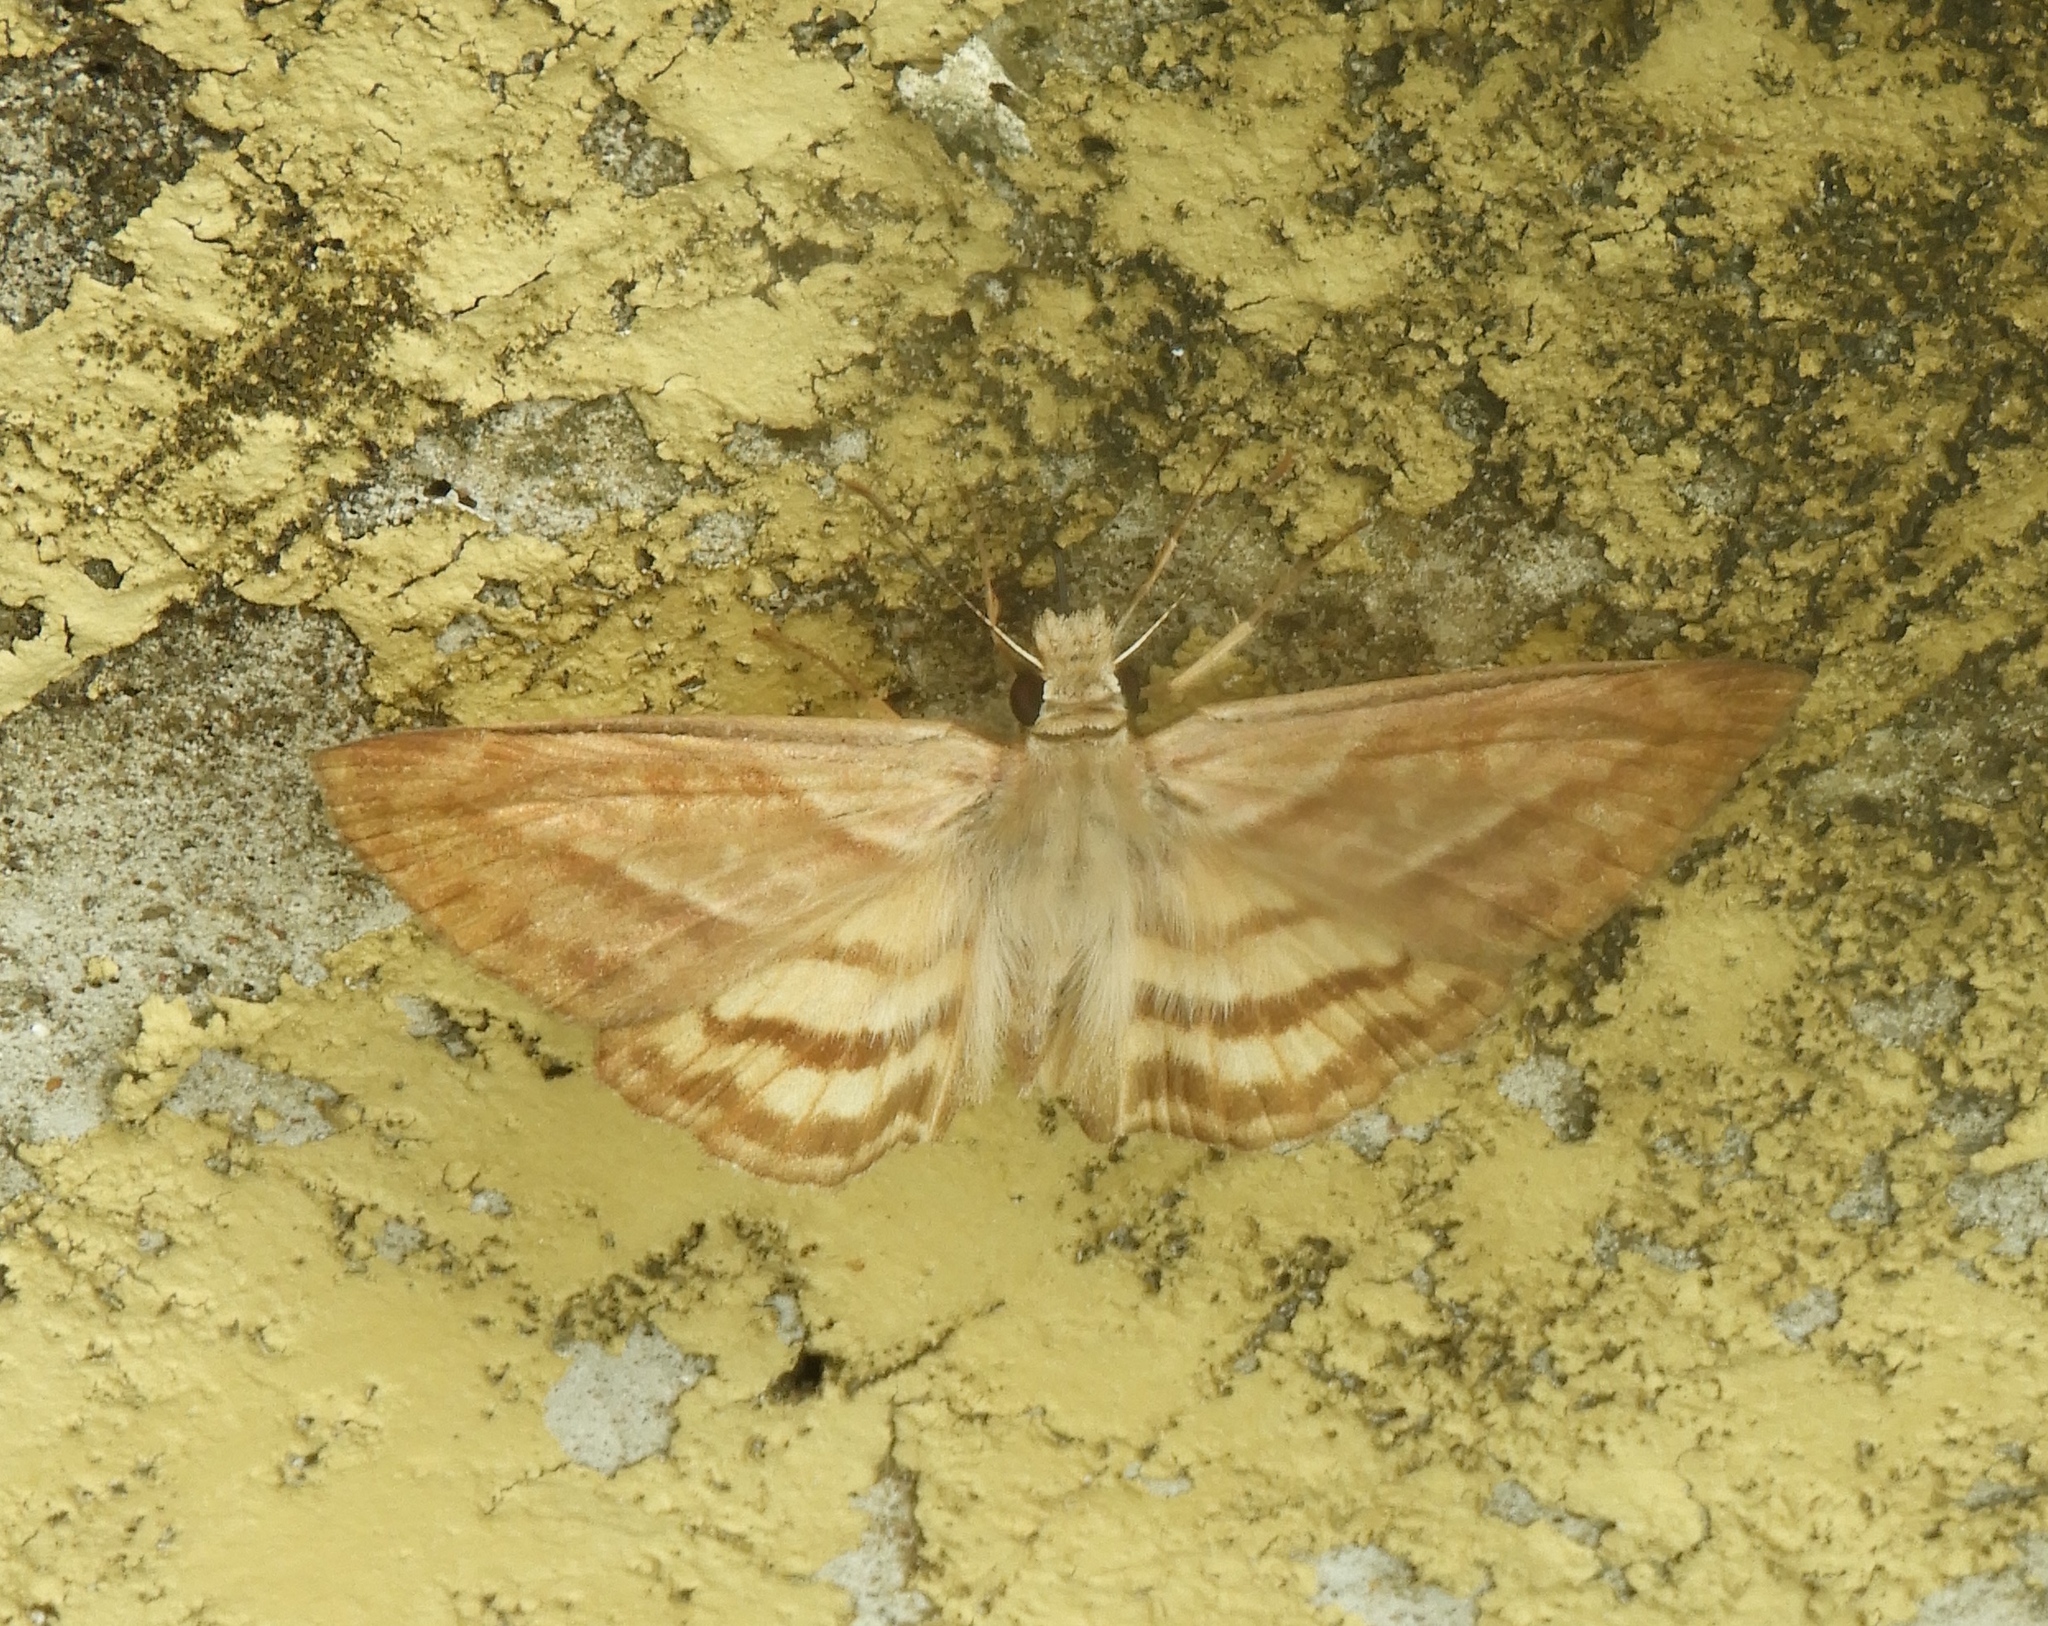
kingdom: Animalia
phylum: Arthropoda
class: Insecta
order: Lepidoptera
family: Hesperiidae
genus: Timochares
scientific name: Timochares trifasciata
